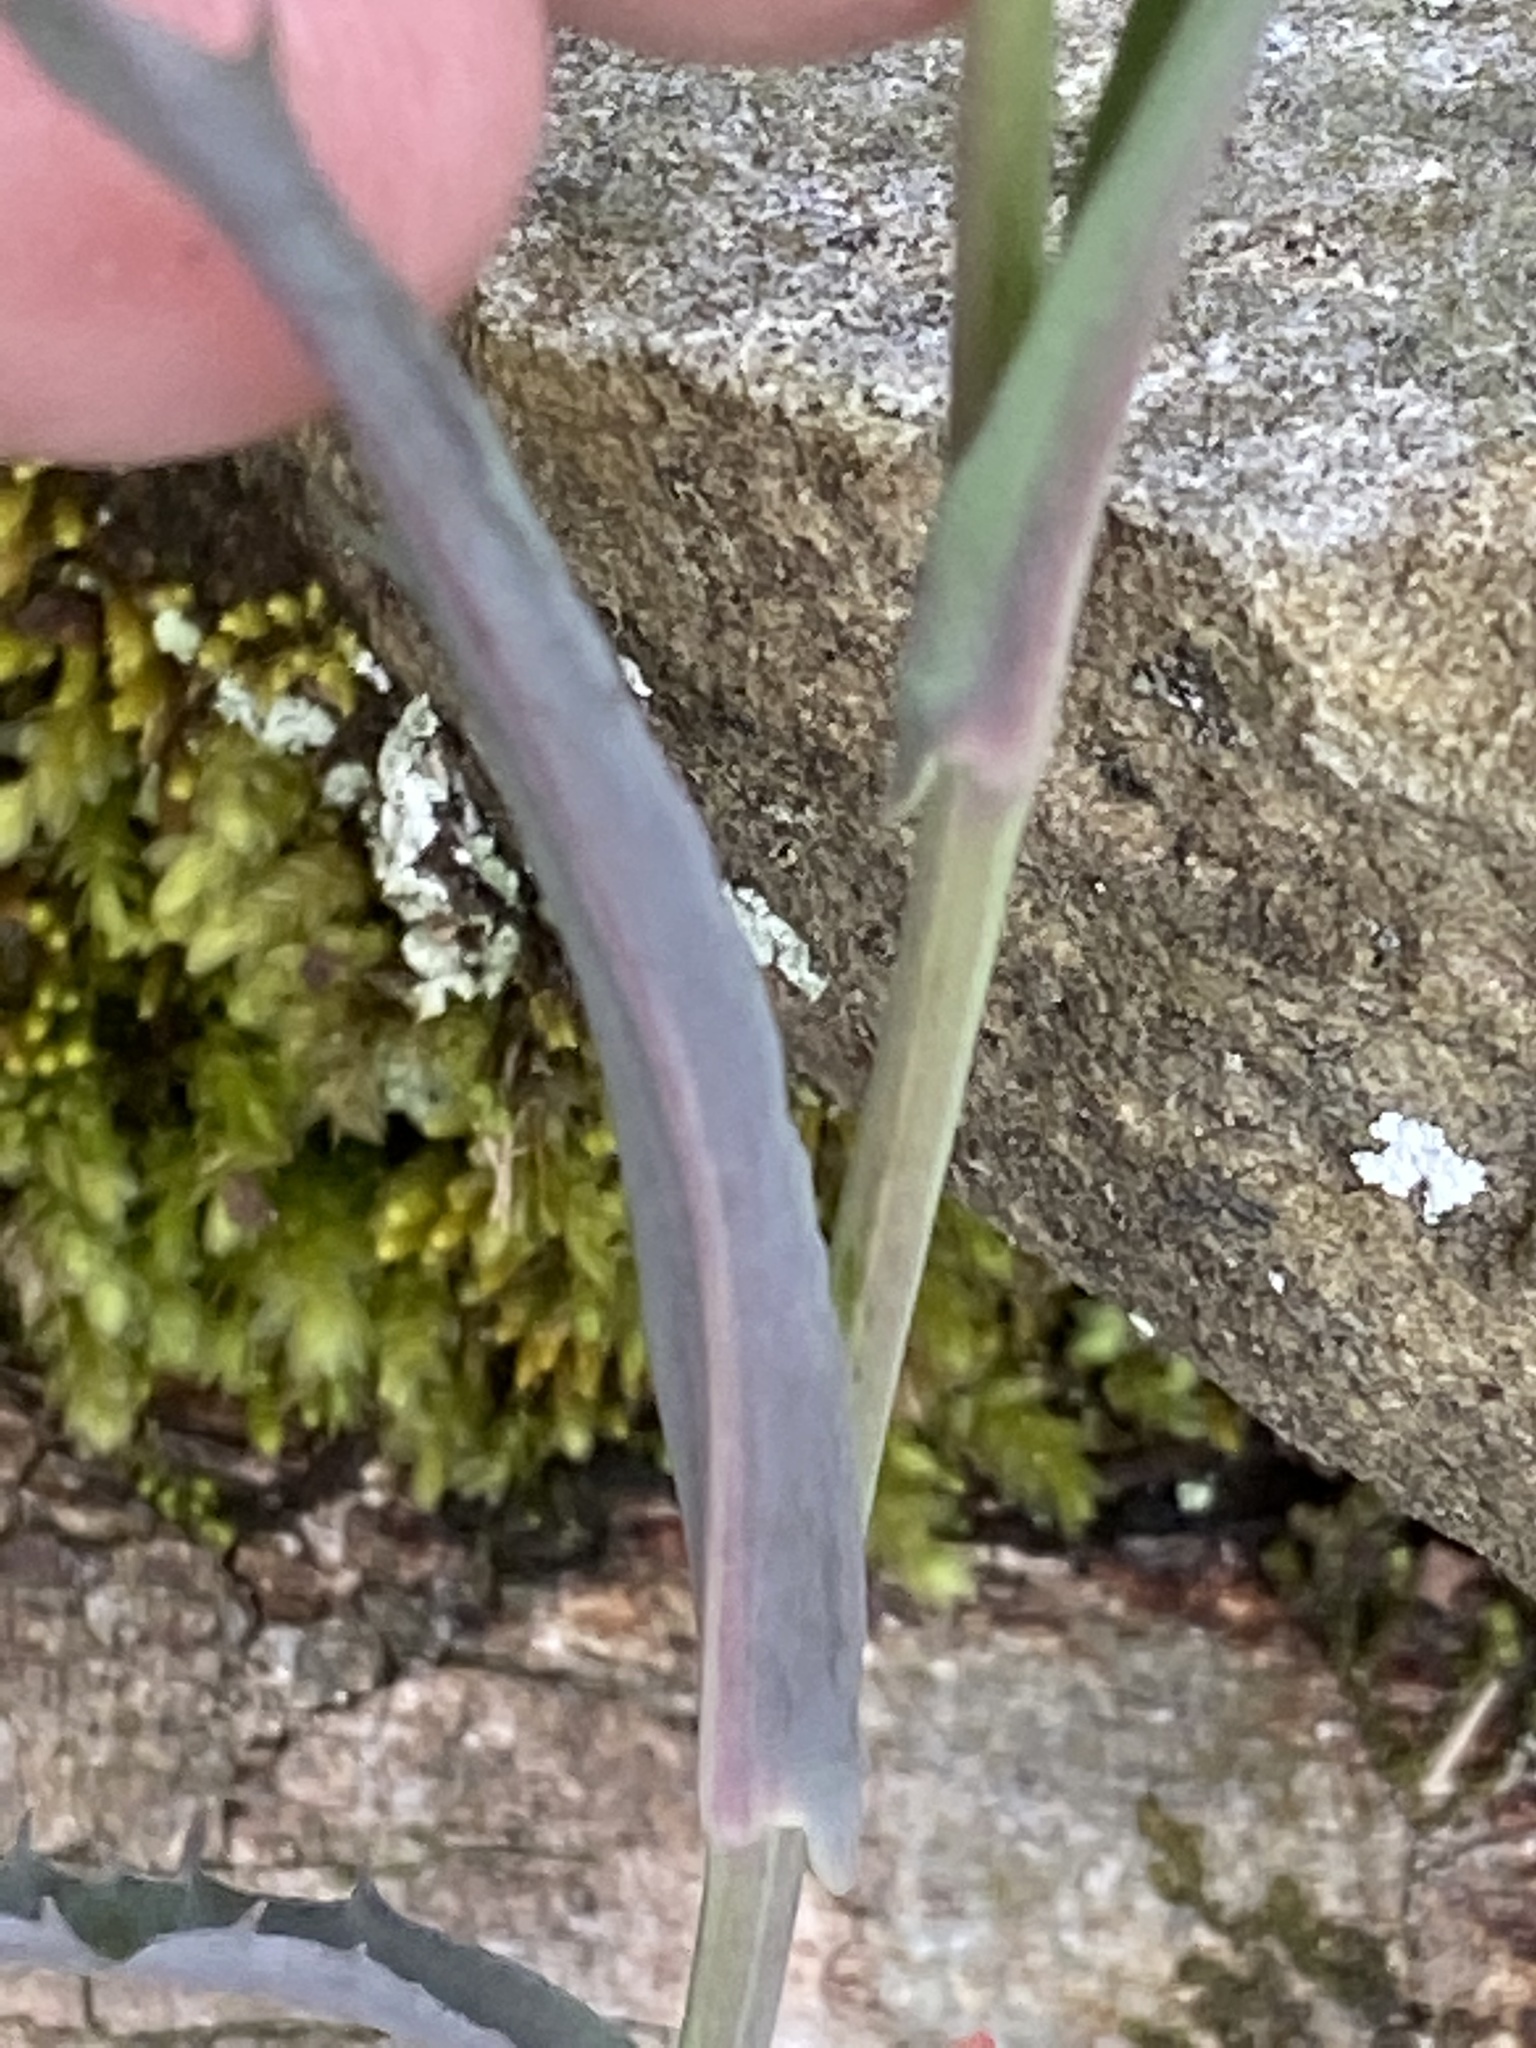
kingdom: Plantae
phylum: Tracheophyta
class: Magnoliopsida
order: Brassicales
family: Brassicaceae
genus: Borodinia
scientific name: Borodinia laevigata
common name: Smooth rockcress
